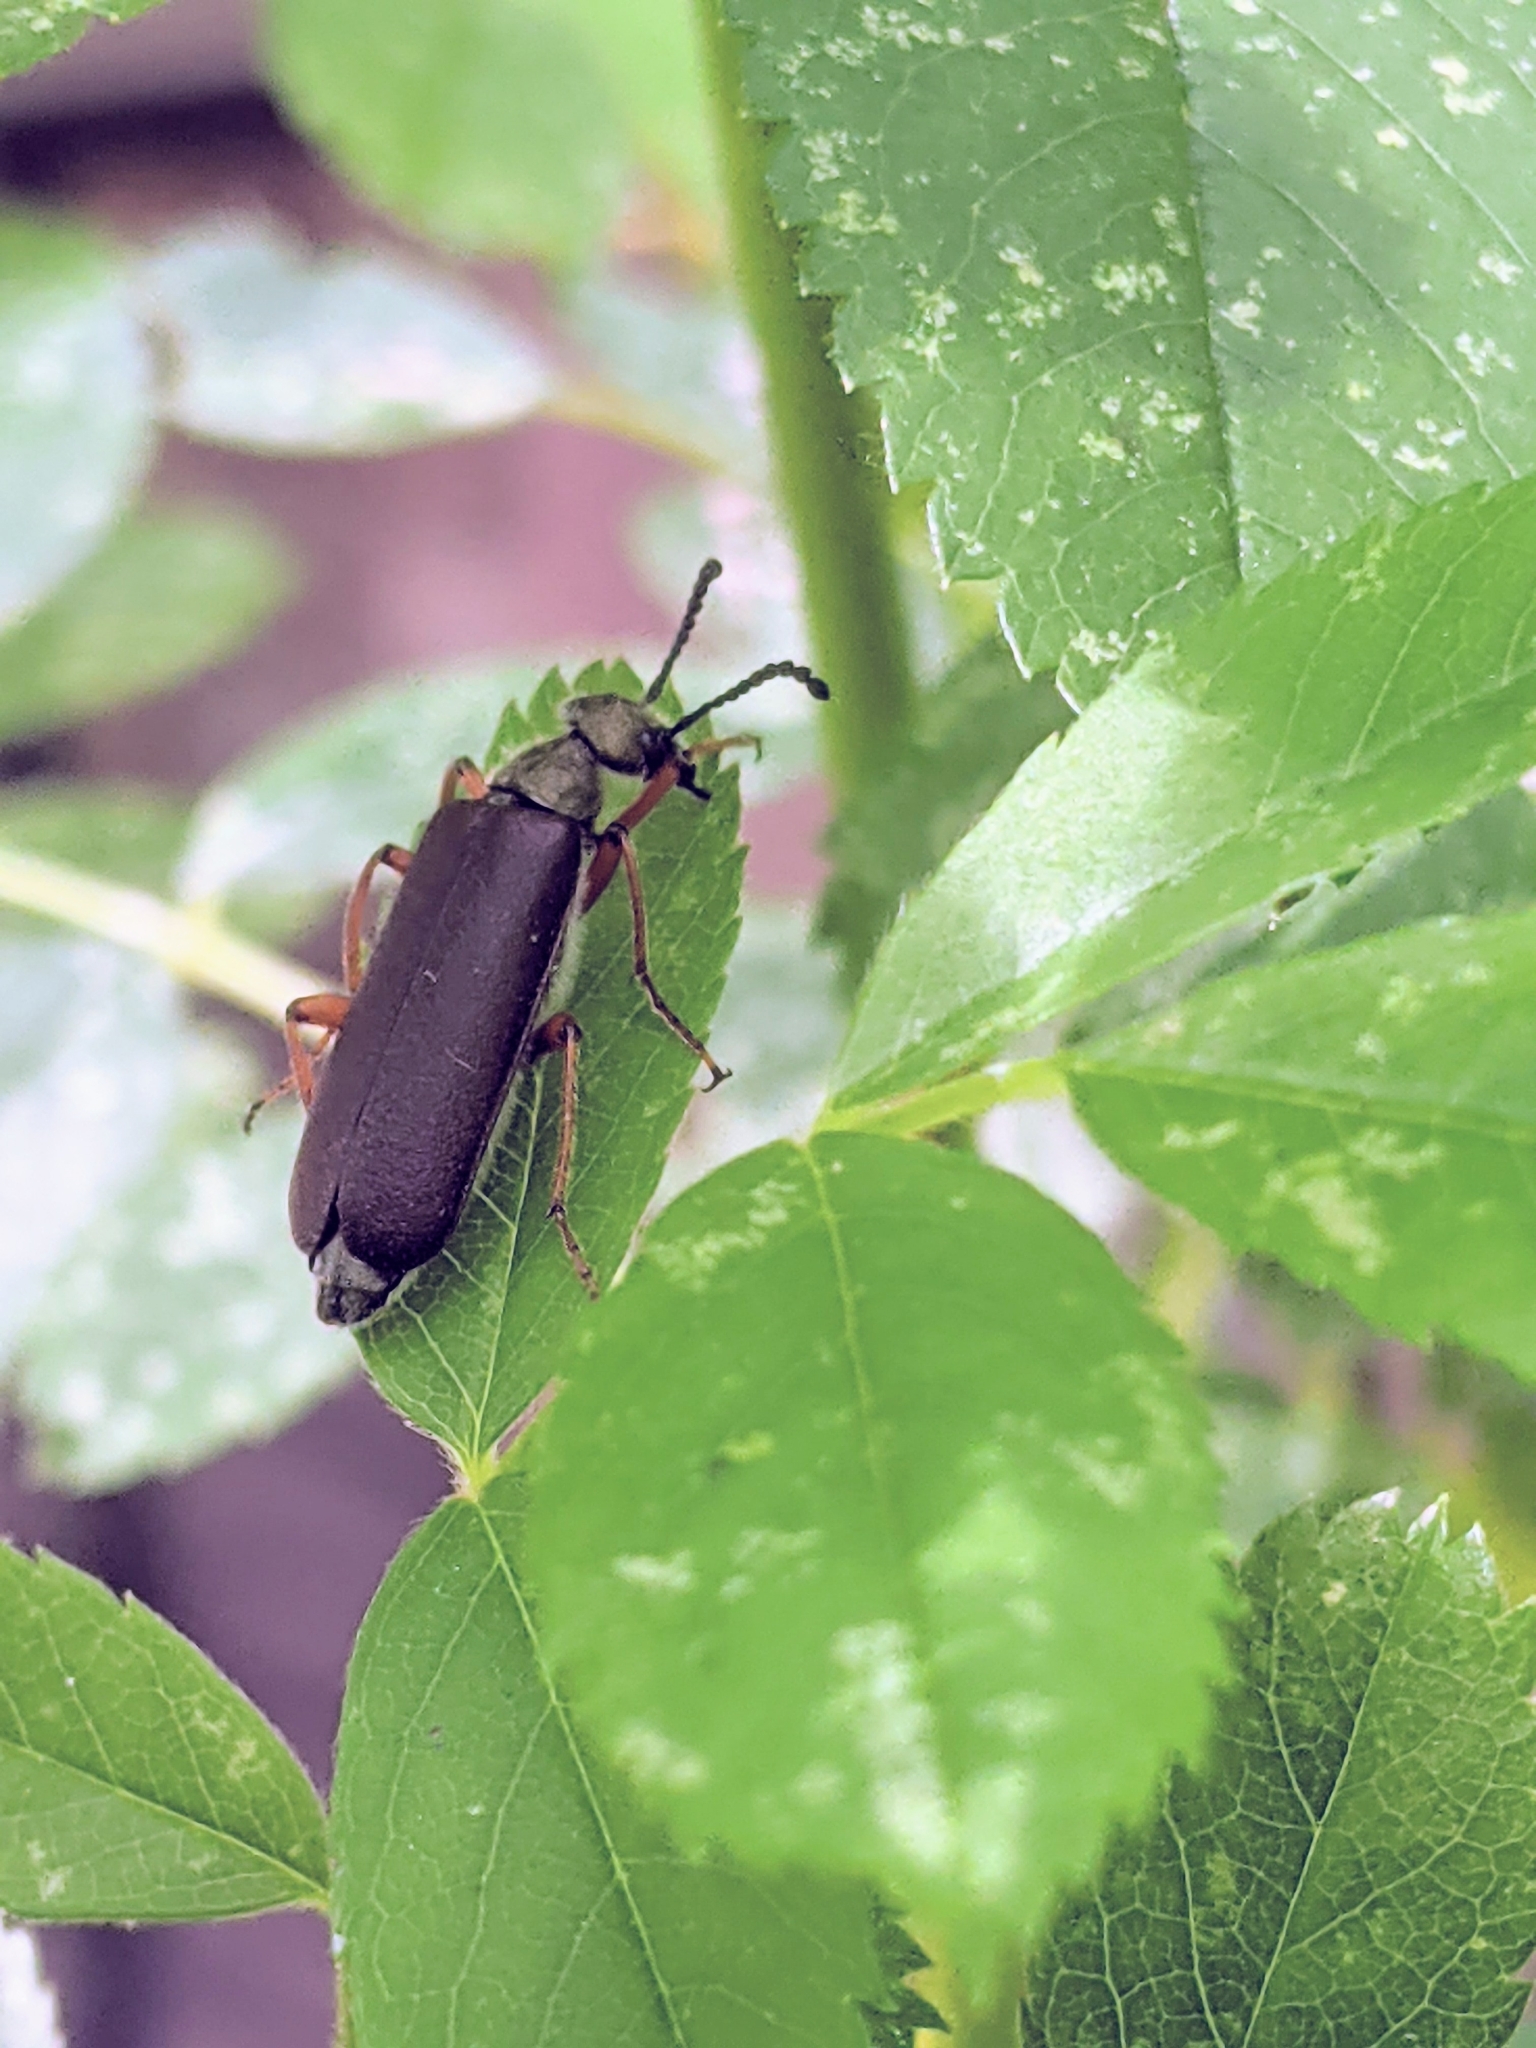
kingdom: Animalia
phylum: Arthropoda
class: Insecta
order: Coleoptera
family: Meloidae
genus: Lytta
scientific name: Lytta aenea
